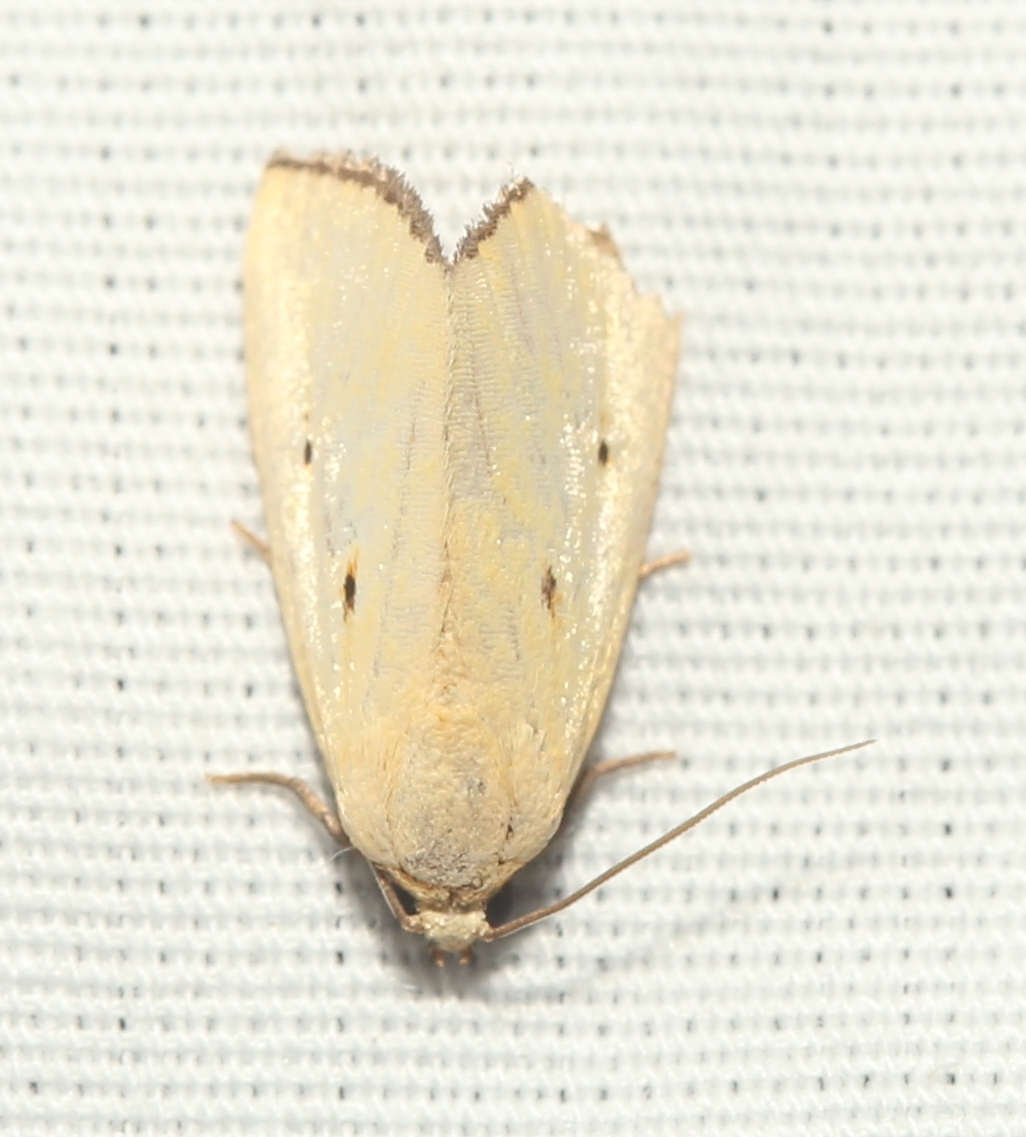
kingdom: Animalia
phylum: Arthropoda
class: Insecta
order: Lepidoptera
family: Noctuidae
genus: Marimatha
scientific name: Marimatha nigrofimbria
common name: Black-bordered lemon moth
